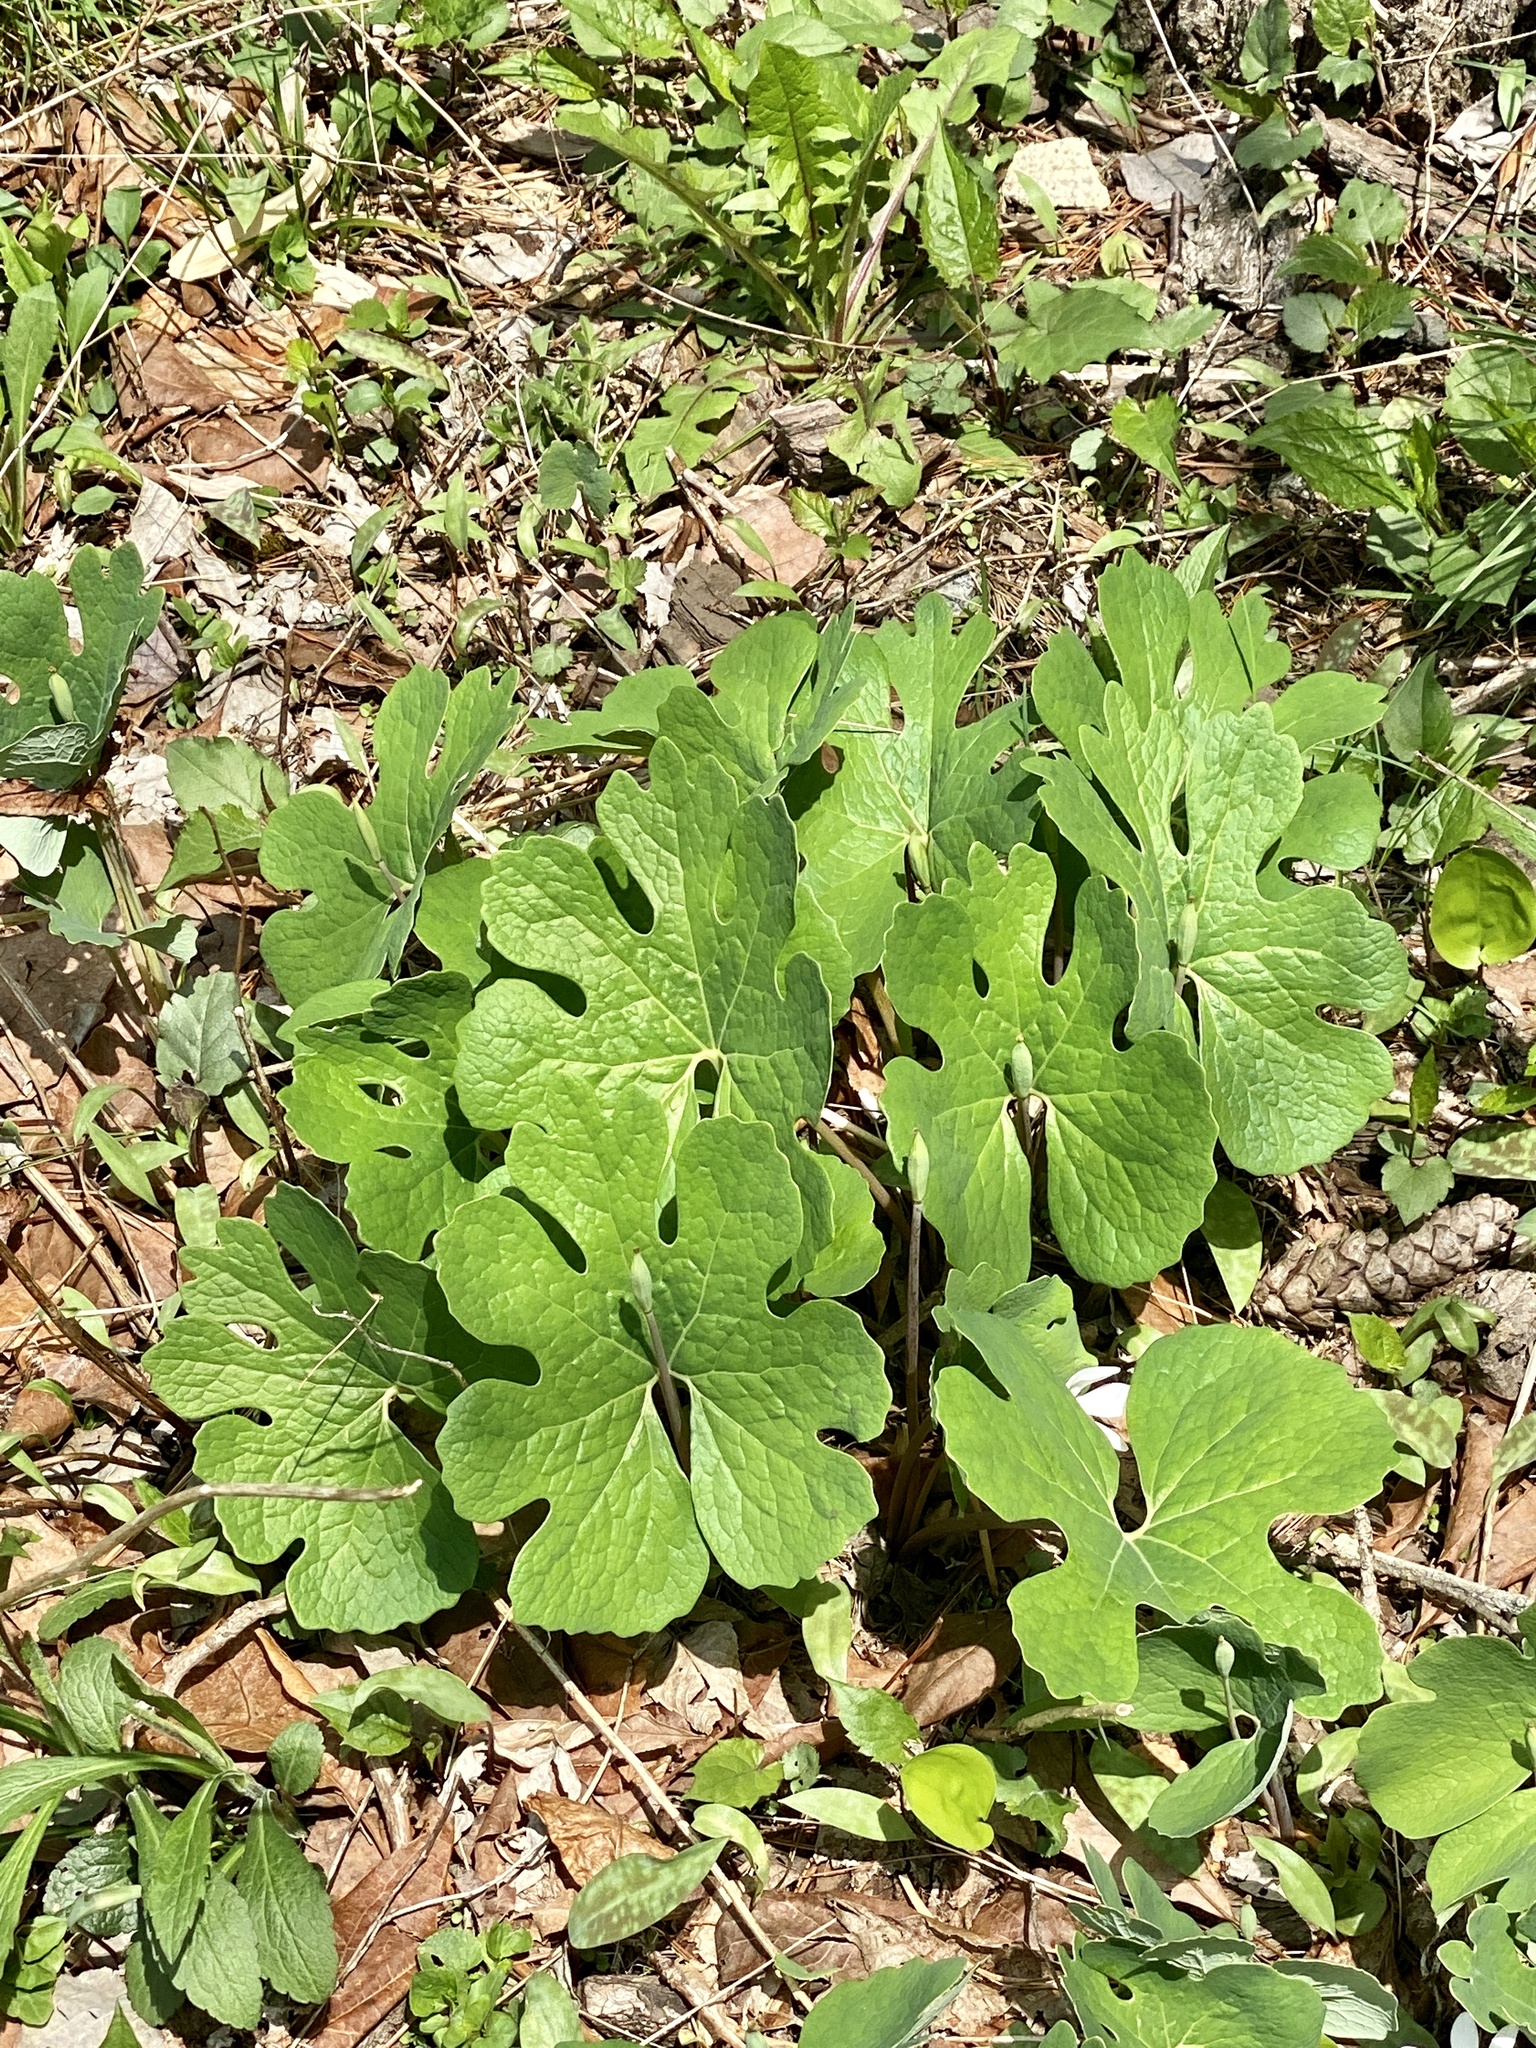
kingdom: Plantae
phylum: Tracheophyta
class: Magnoliopsida
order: Ranunculales
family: Papaveraceae
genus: Sanguinaria
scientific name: Sanguinaria canadensis
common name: Bloodroot
